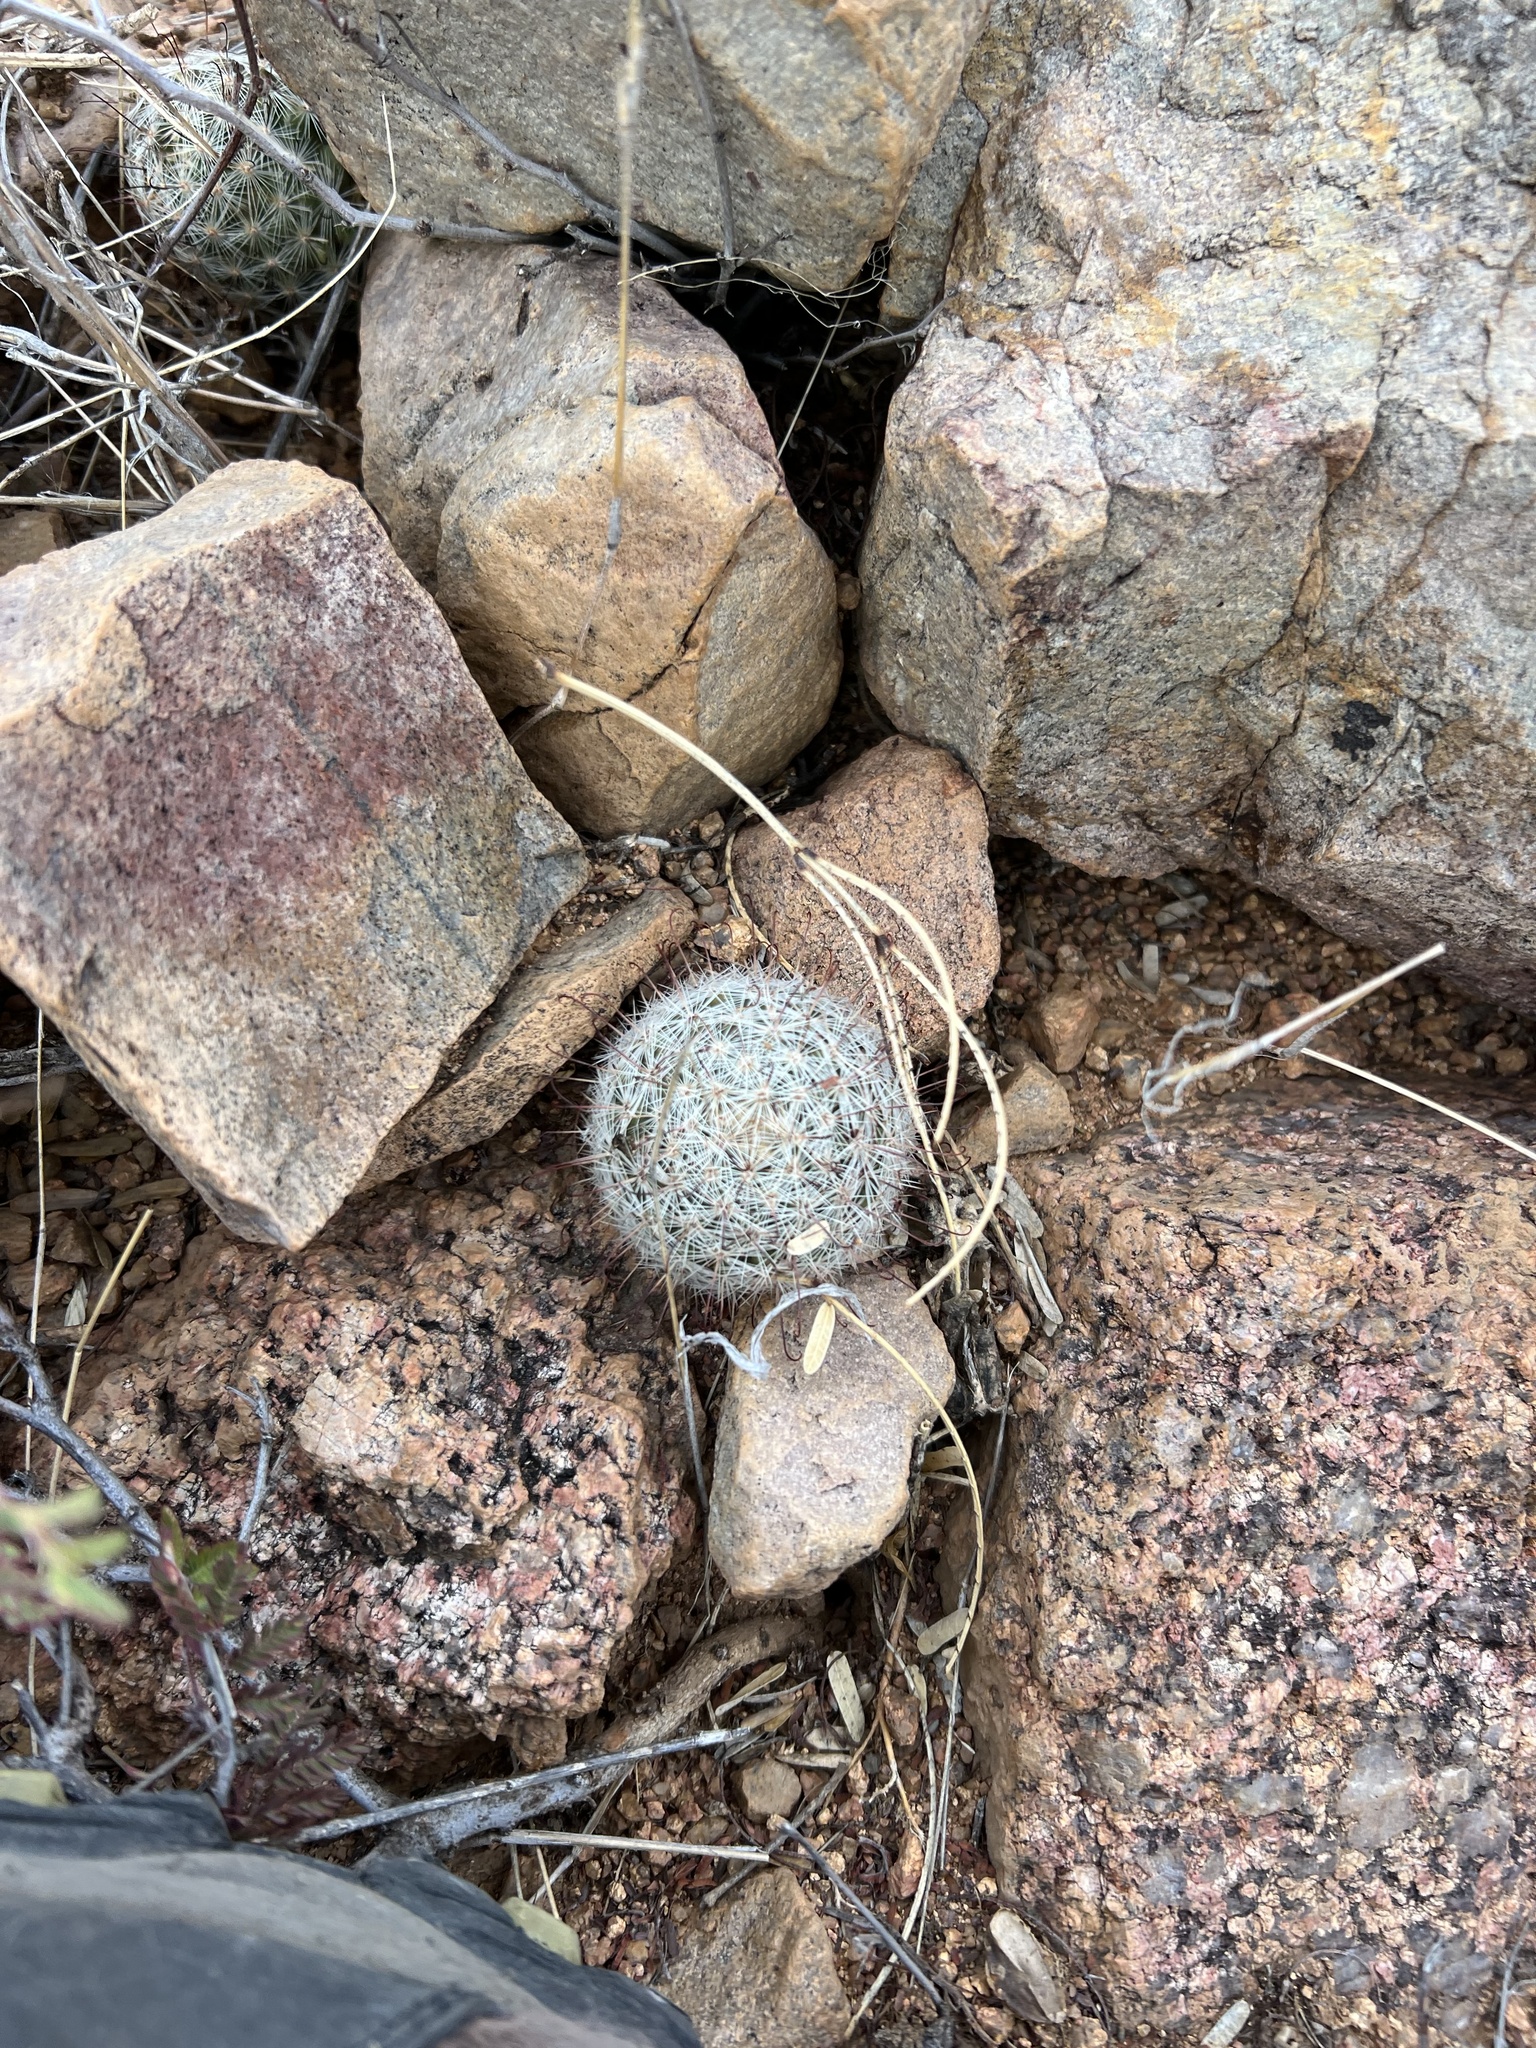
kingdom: Plantae
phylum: Tracheophyta
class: Magnoliopsida
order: Caryophyllales
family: Cactaceae
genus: Cochemiea
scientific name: Cochemiea grahamii
